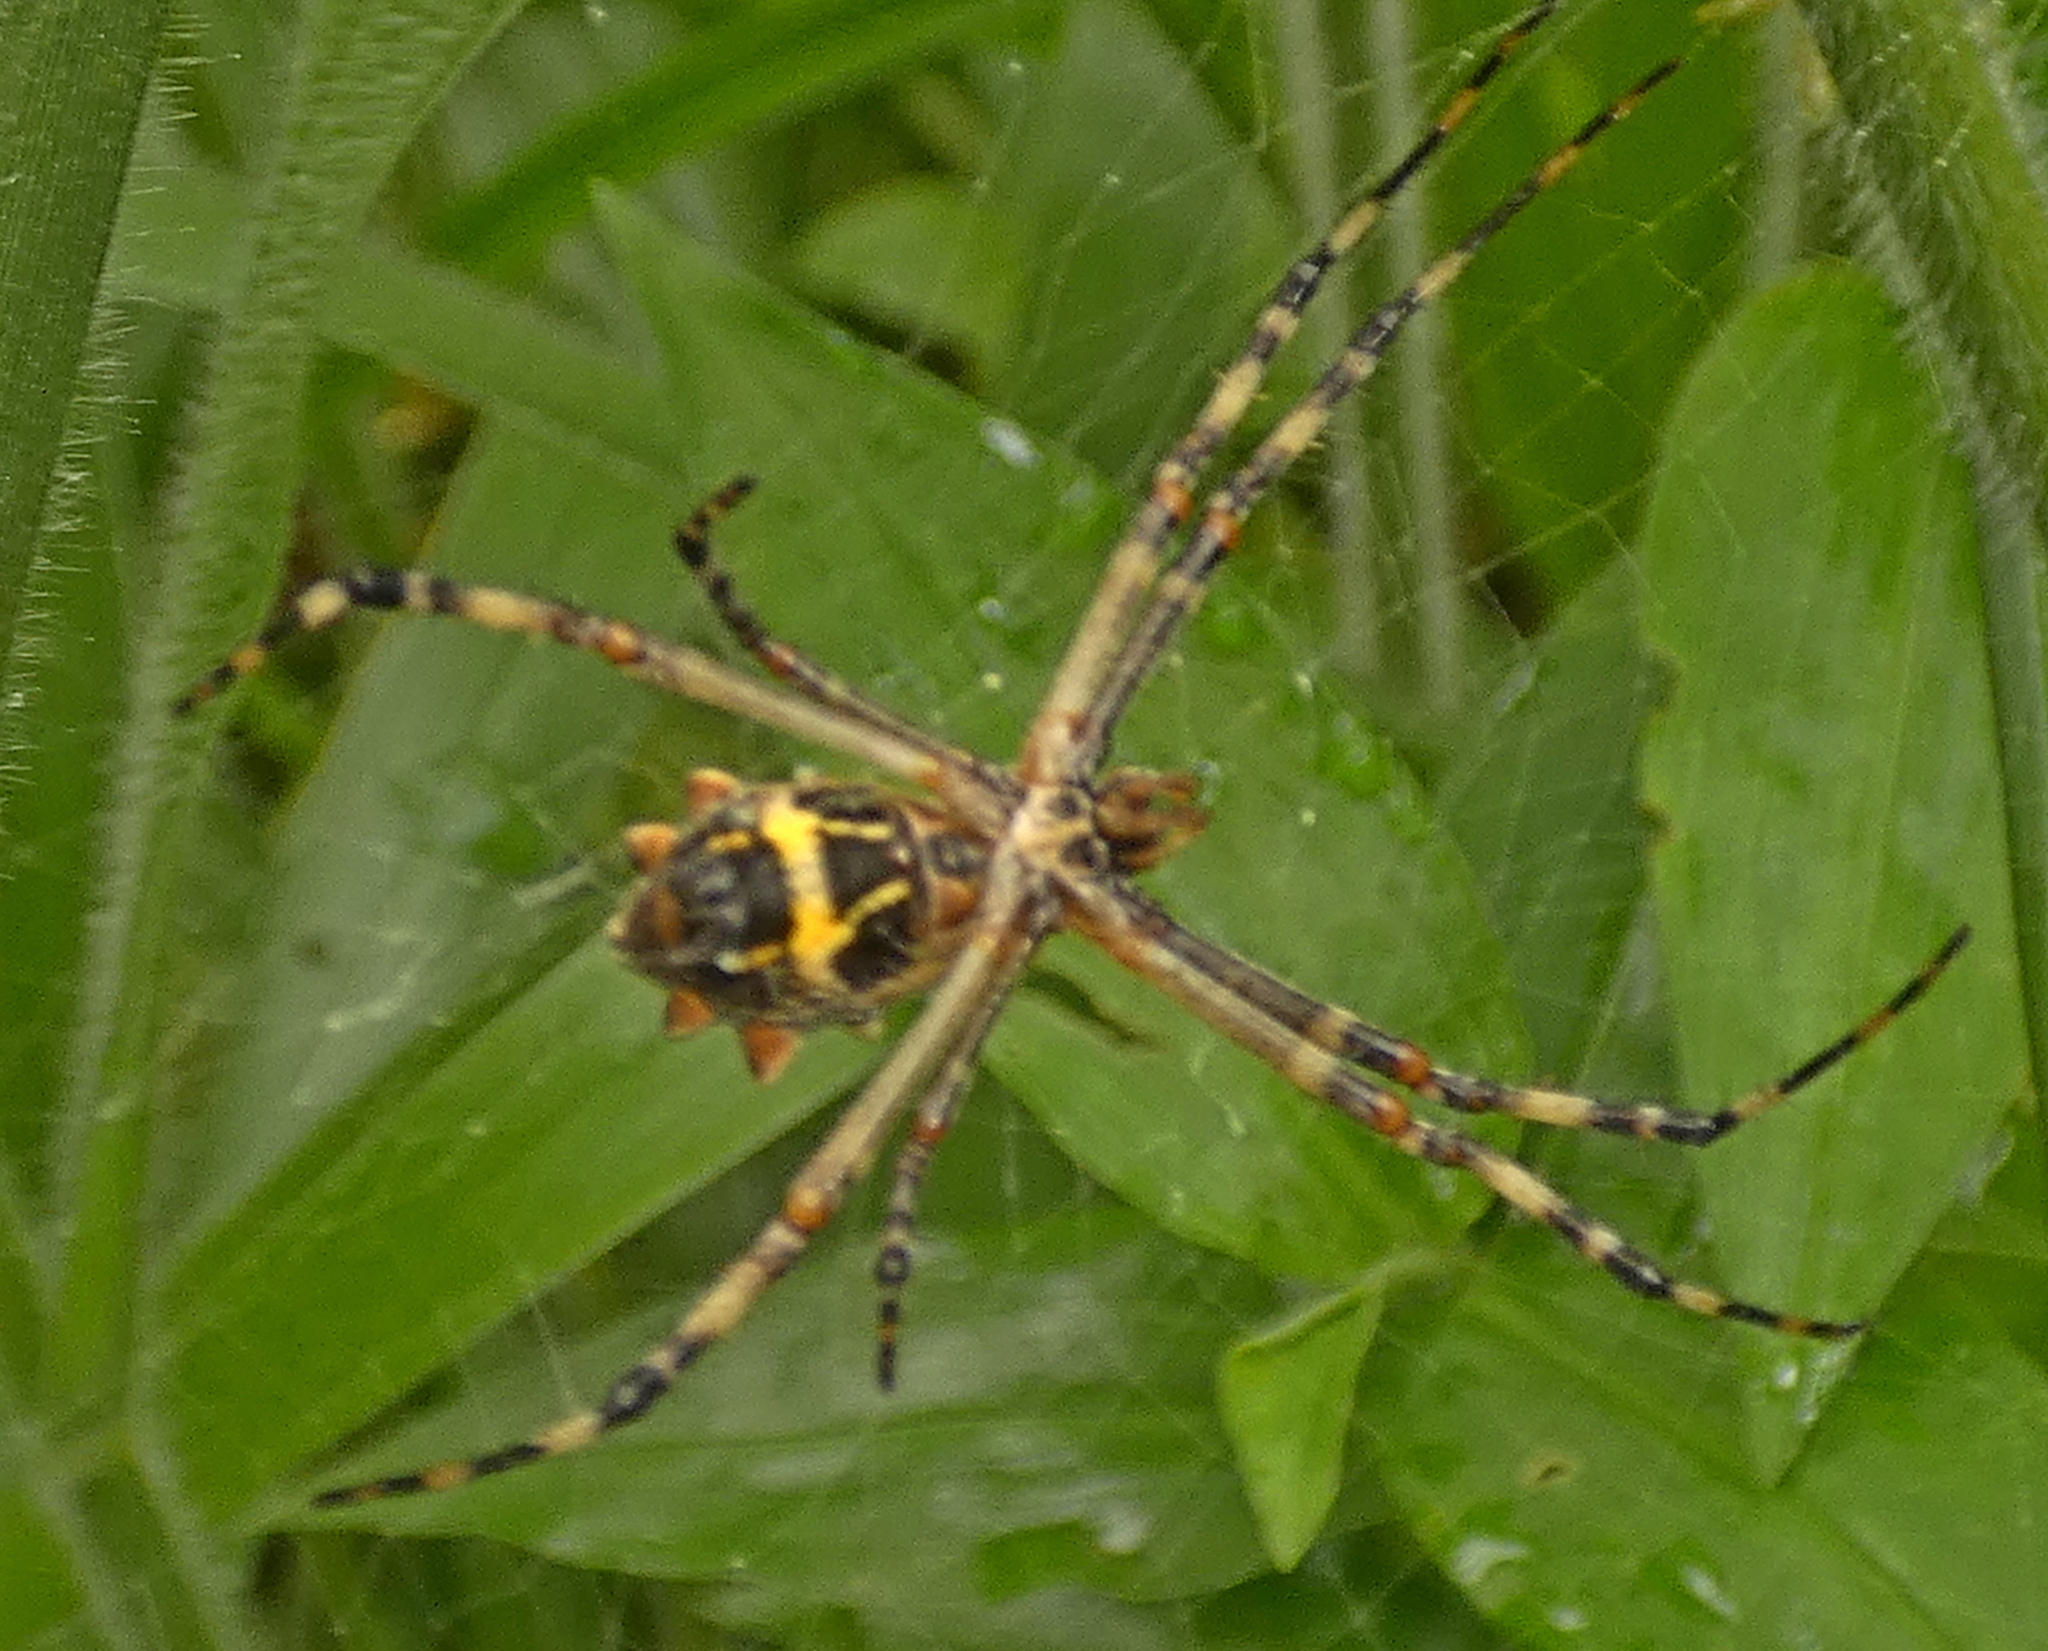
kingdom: Animalia
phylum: Arthropoda
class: Arachnida
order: Araneae
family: Araneidae
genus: Argiope
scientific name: Argiope argentata
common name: Orb weavers
